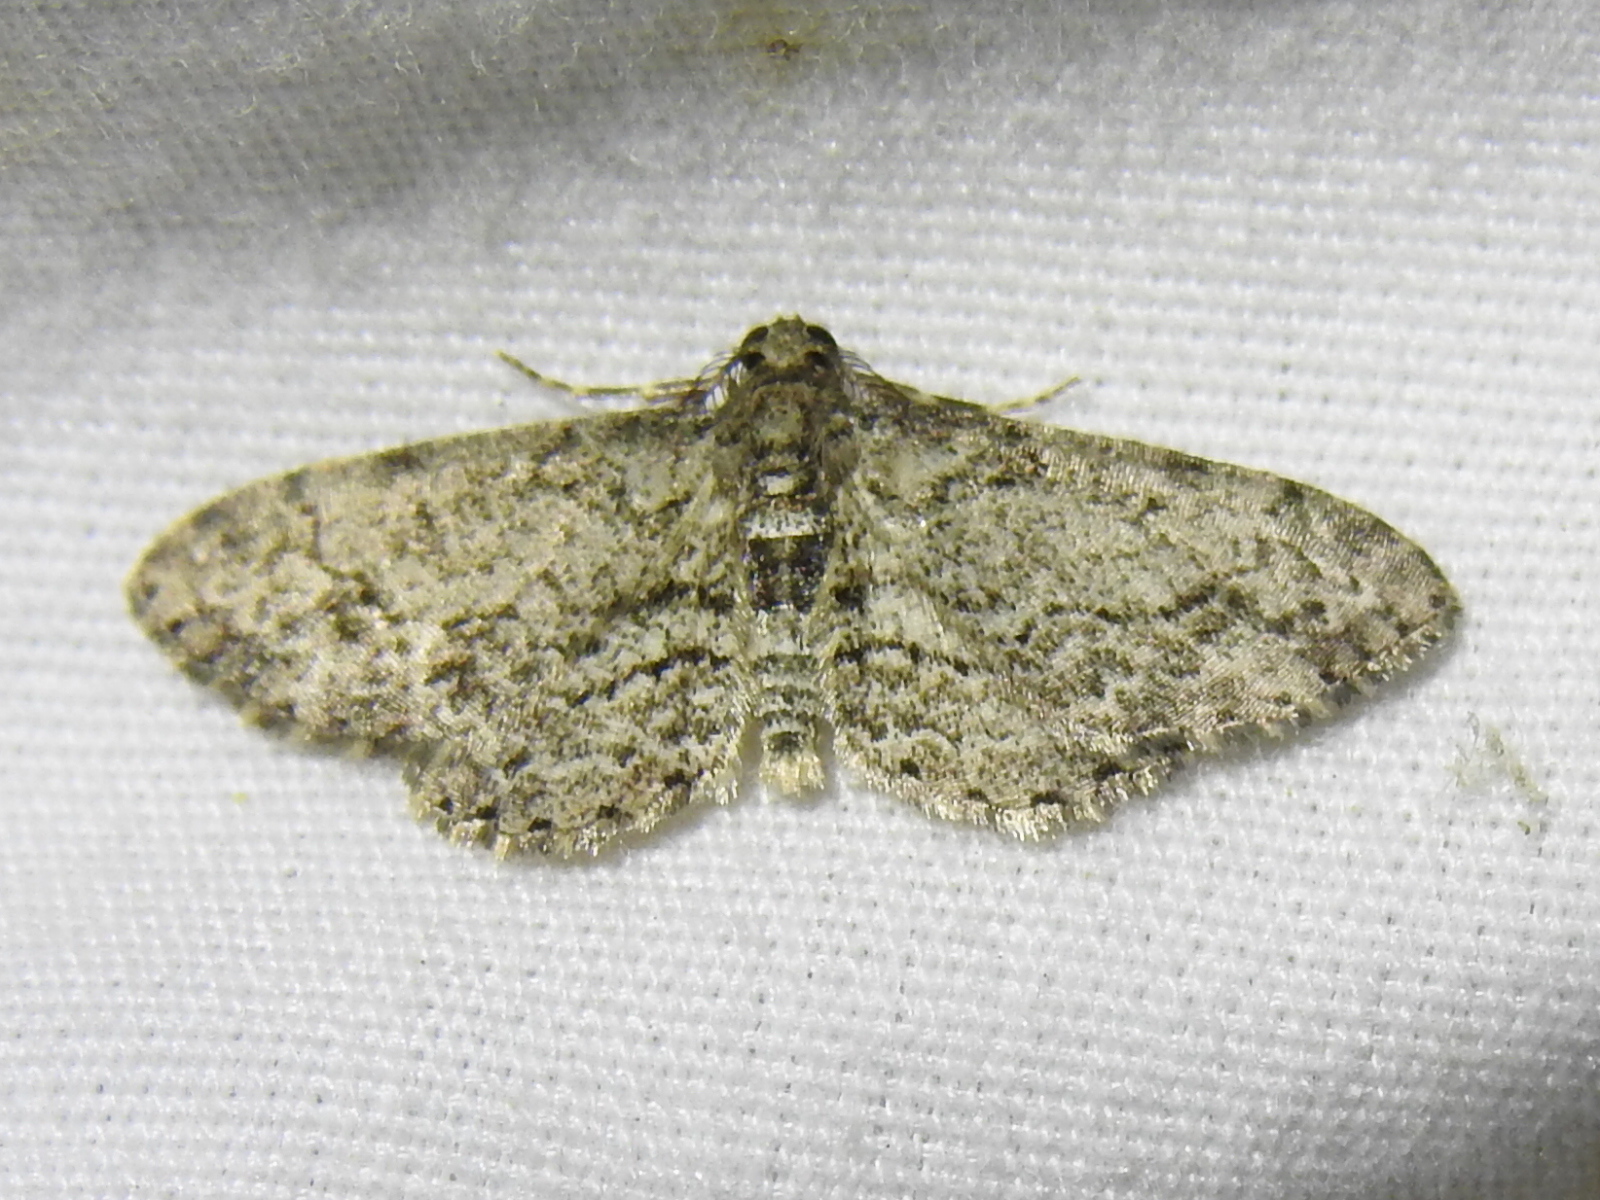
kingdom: Animalia
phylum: Arthropoda
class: Insecta
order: Lepidoptera
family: Geometridae
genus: Glenoides
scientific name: Glenoides texanaria
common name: Texas gray
